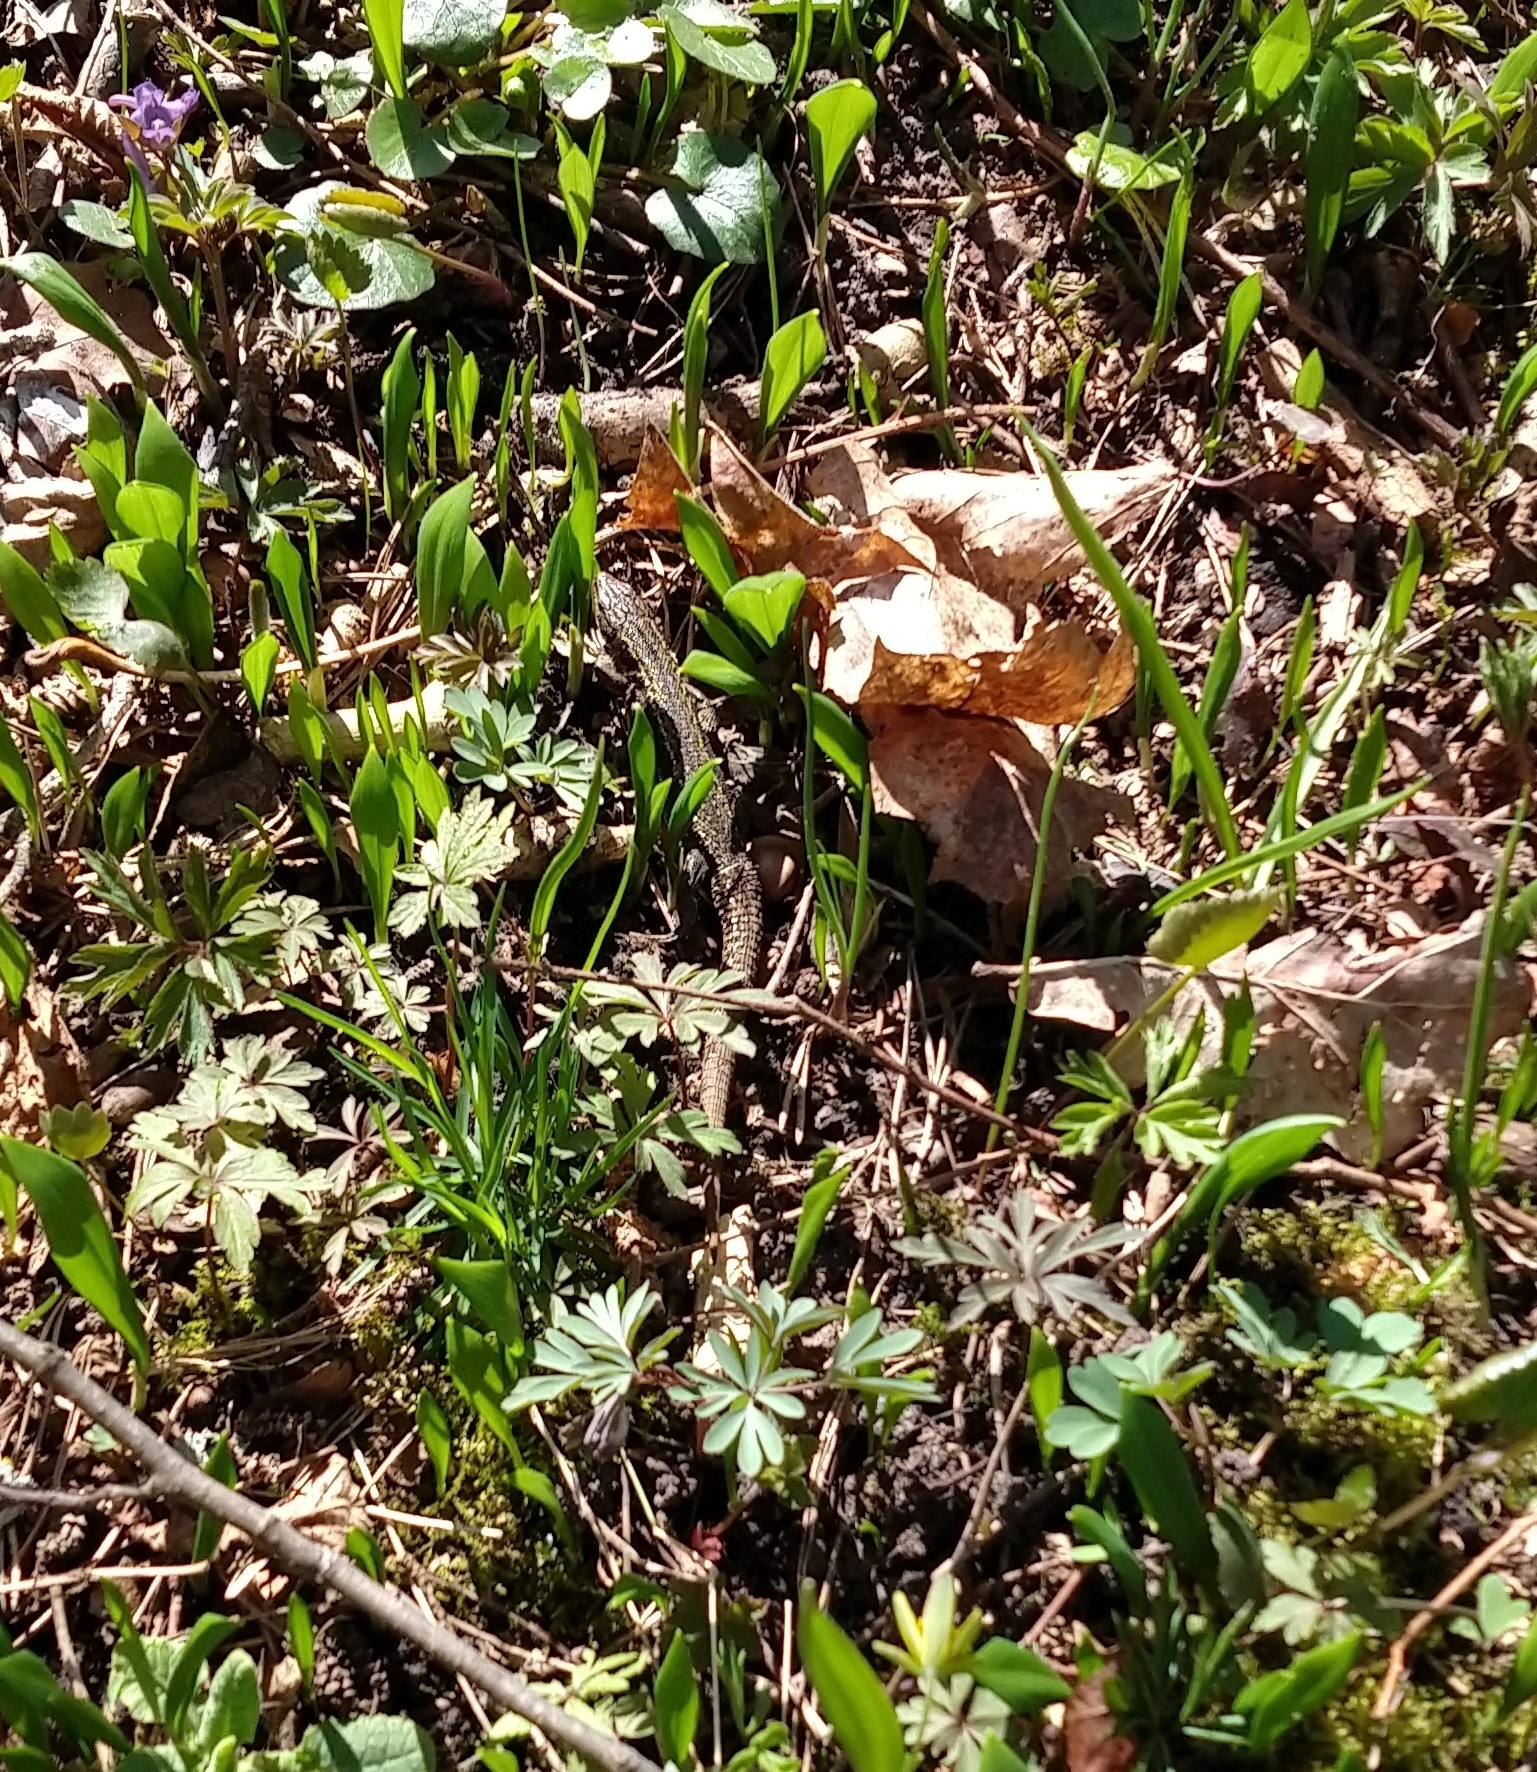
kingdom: Animalia
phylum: Chordata
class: Squamata
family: Lacertidae
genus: Zootoca
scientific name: Zootoca vivipara
